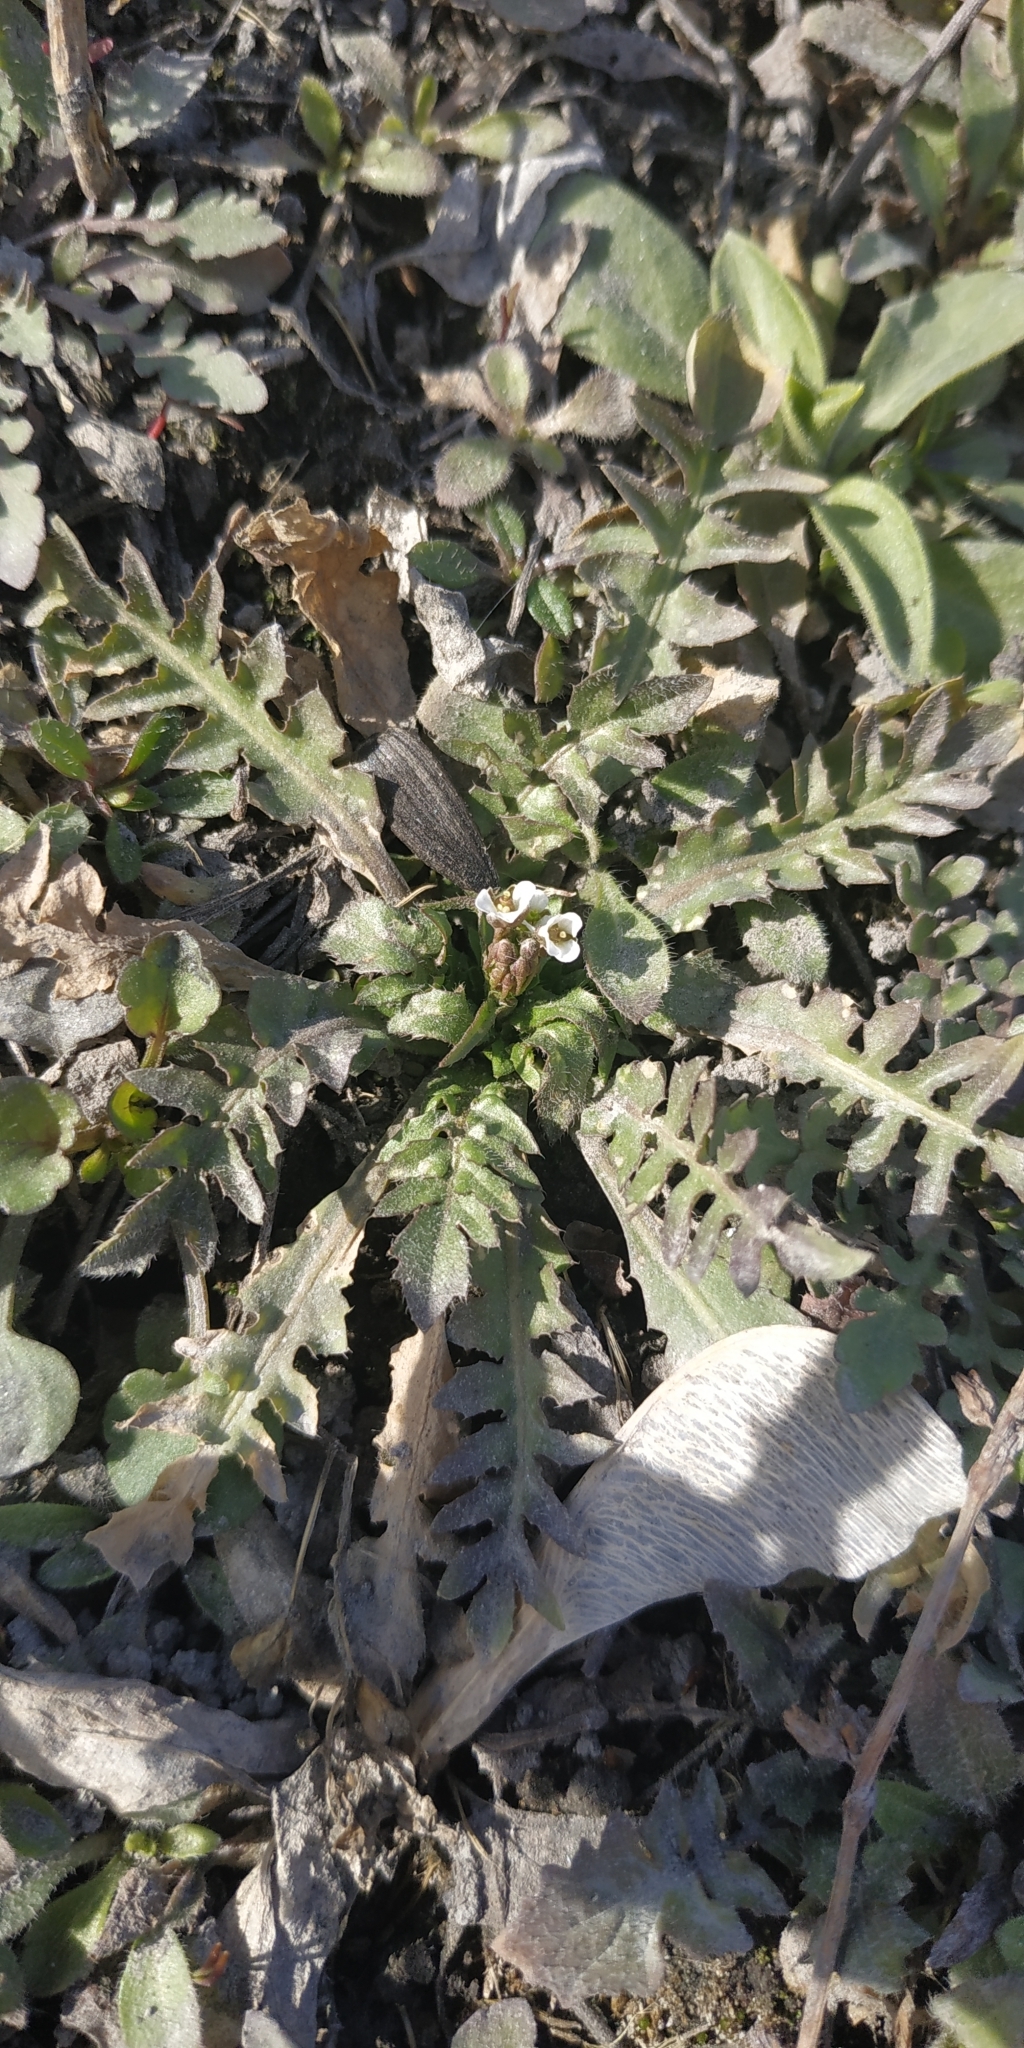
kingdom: Plantae
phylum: Tracheophyta
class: Magnoliopsida
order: Brassicales
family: Brassicaceae
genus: Capsella
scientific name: Capsella bursa-pastoris
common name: Shepherd's purse
